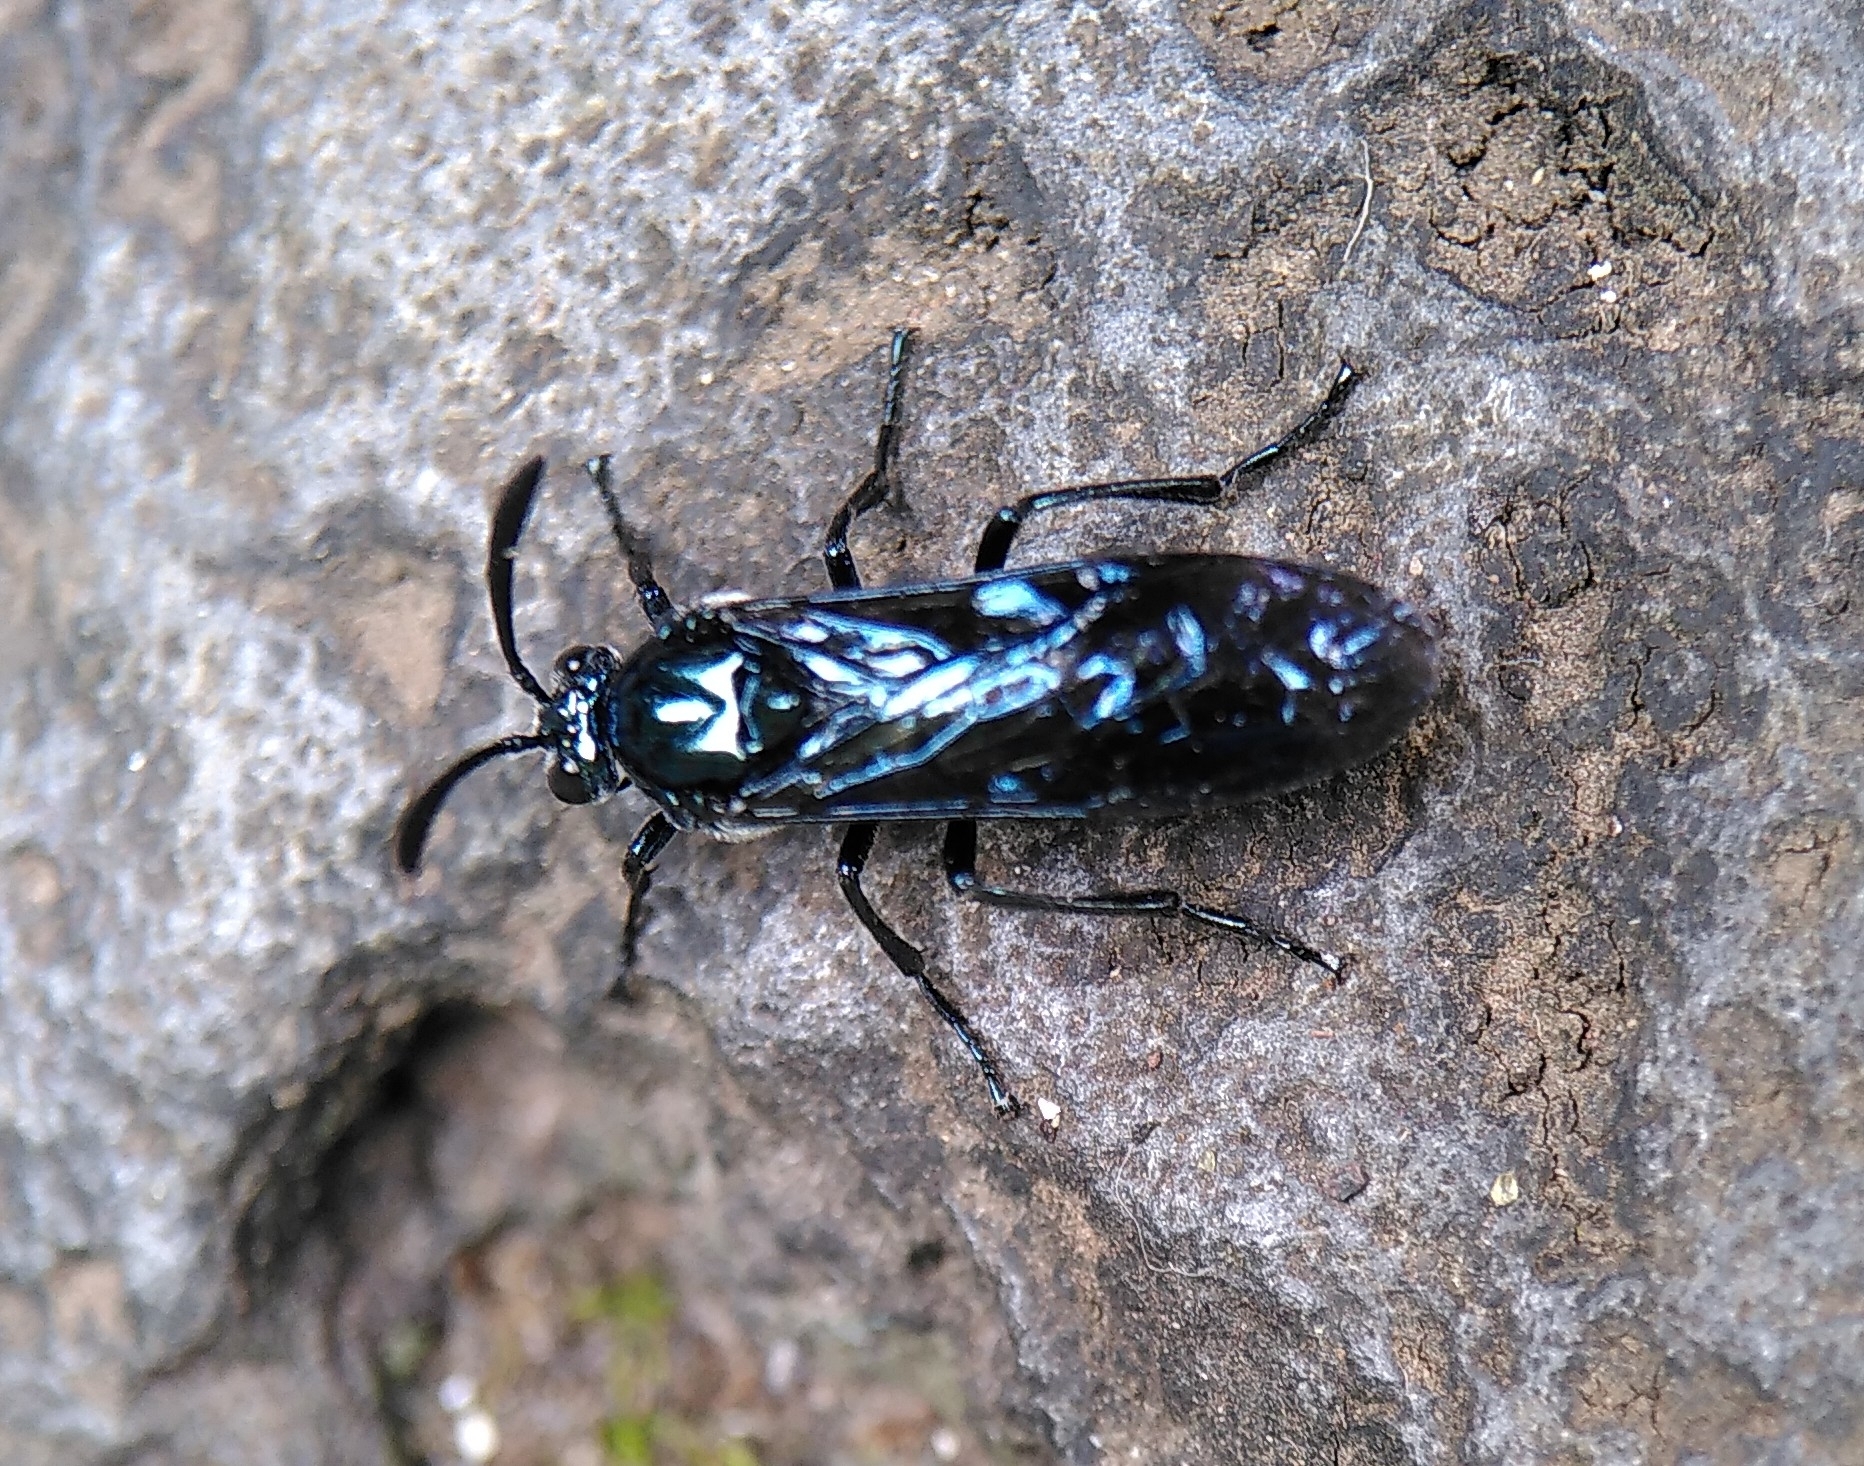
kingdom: Animalia
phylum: Arthropoda
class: Insecta
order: Hymenoptera
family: Argidae
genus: Cibdela
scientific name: Cibdela janthina
